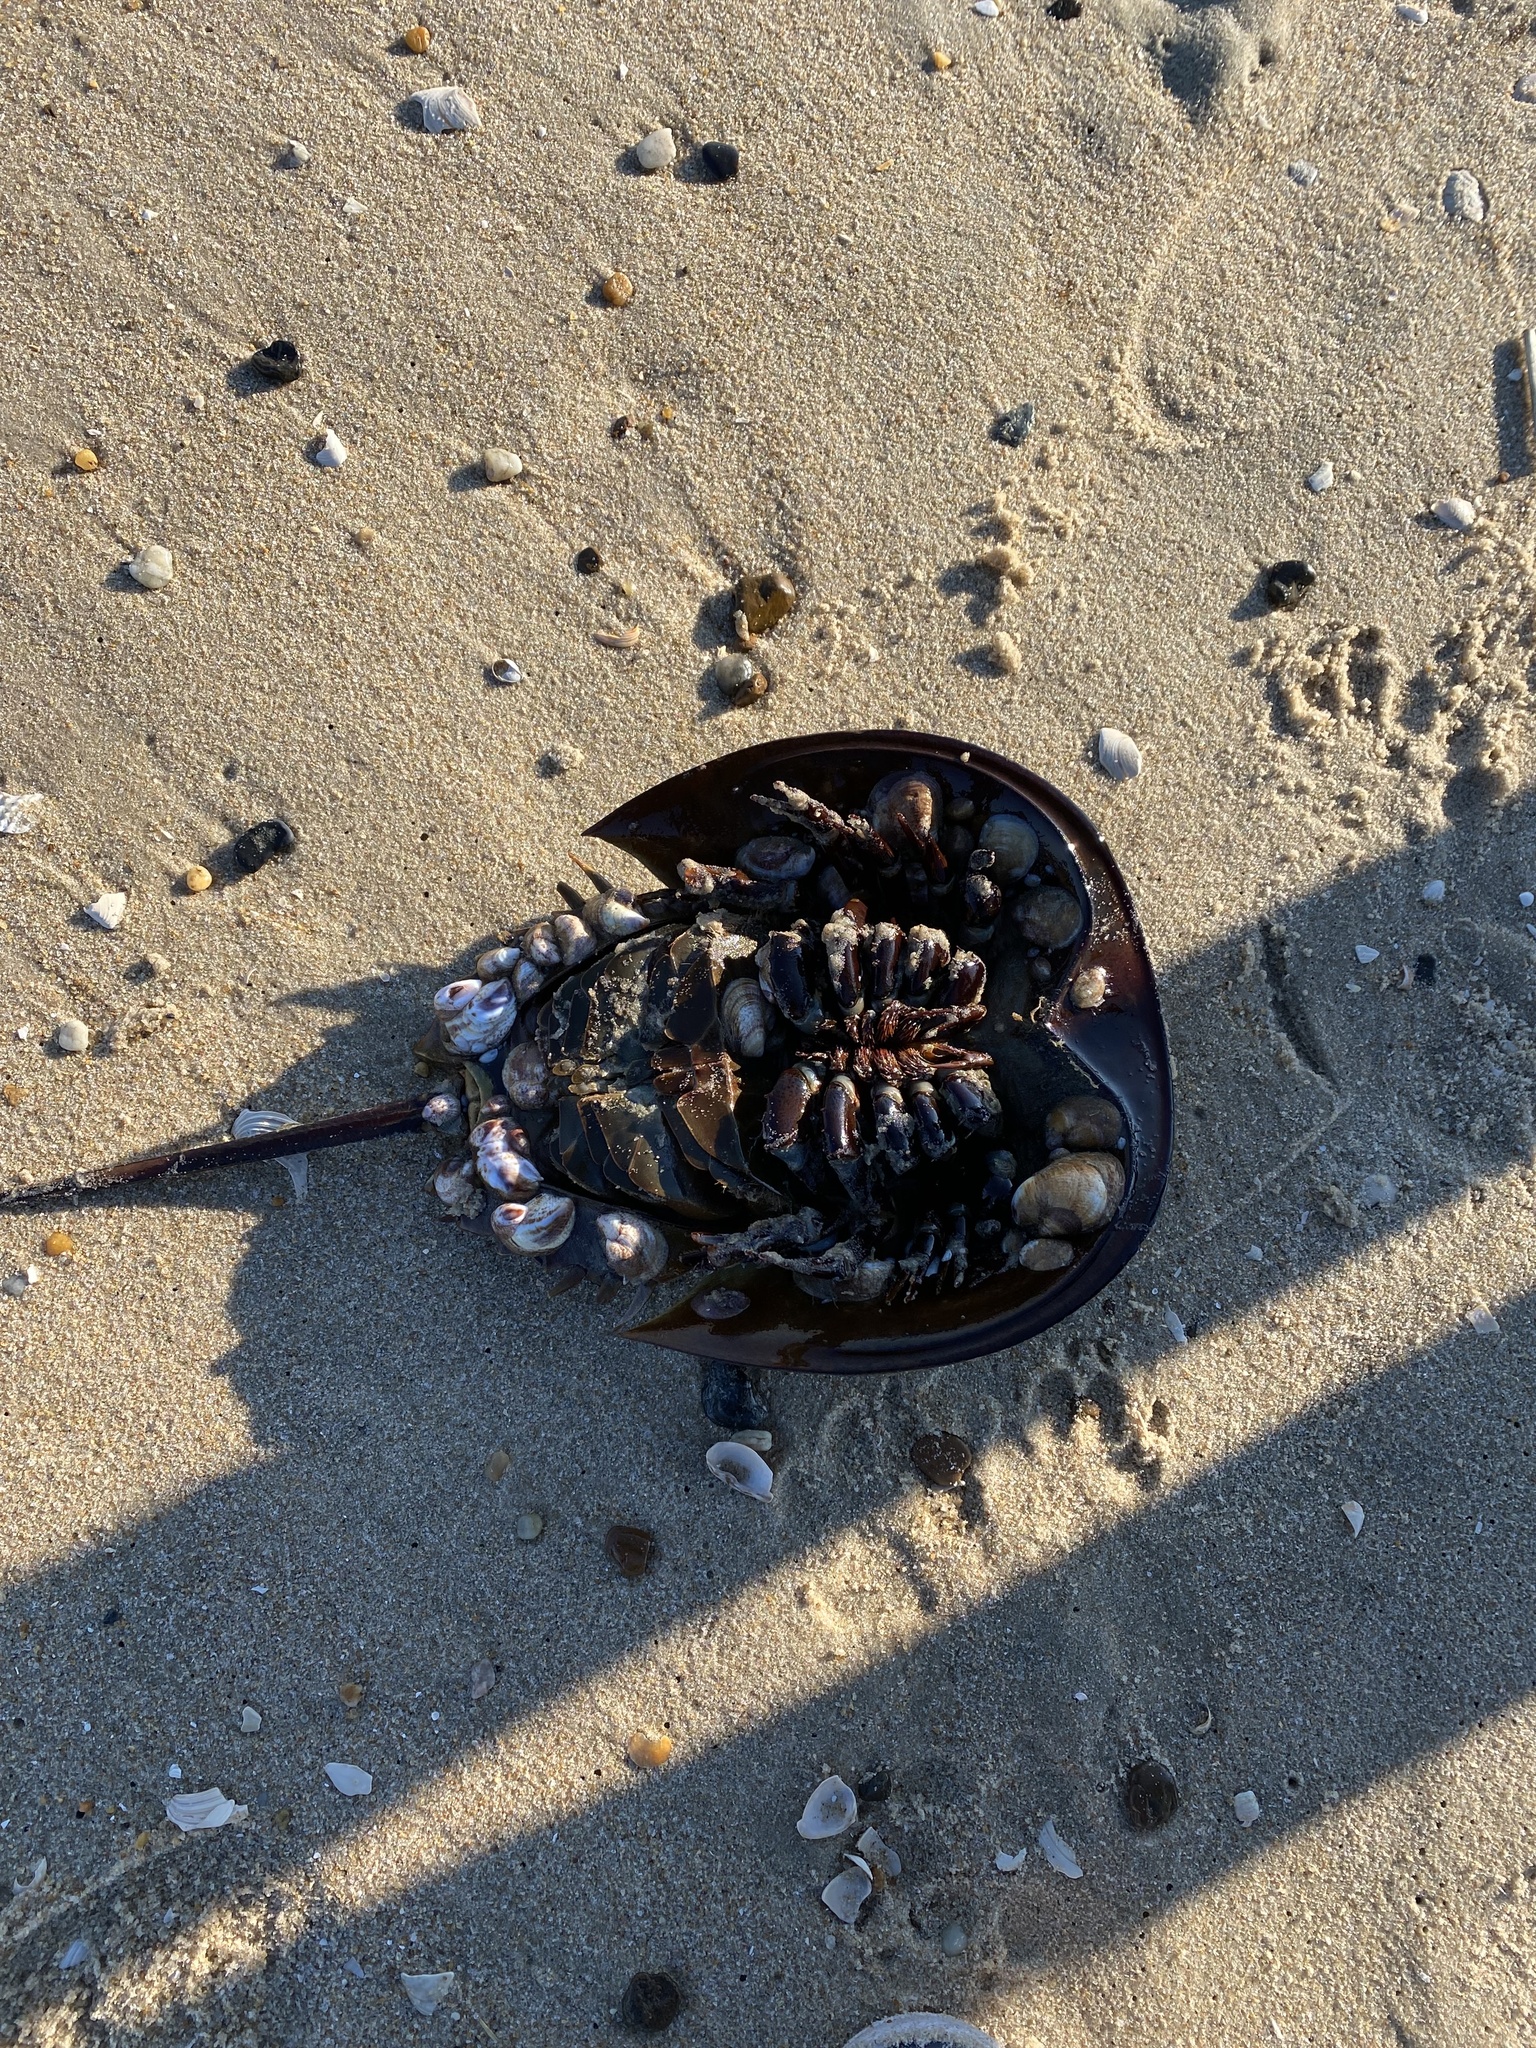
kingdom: Animalia
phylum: Arthropoda
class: Merostomata
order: Xiphosurida
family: Limulidae
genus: Limulus
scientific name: Limulus polyphemus
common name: Horseshoe crab
